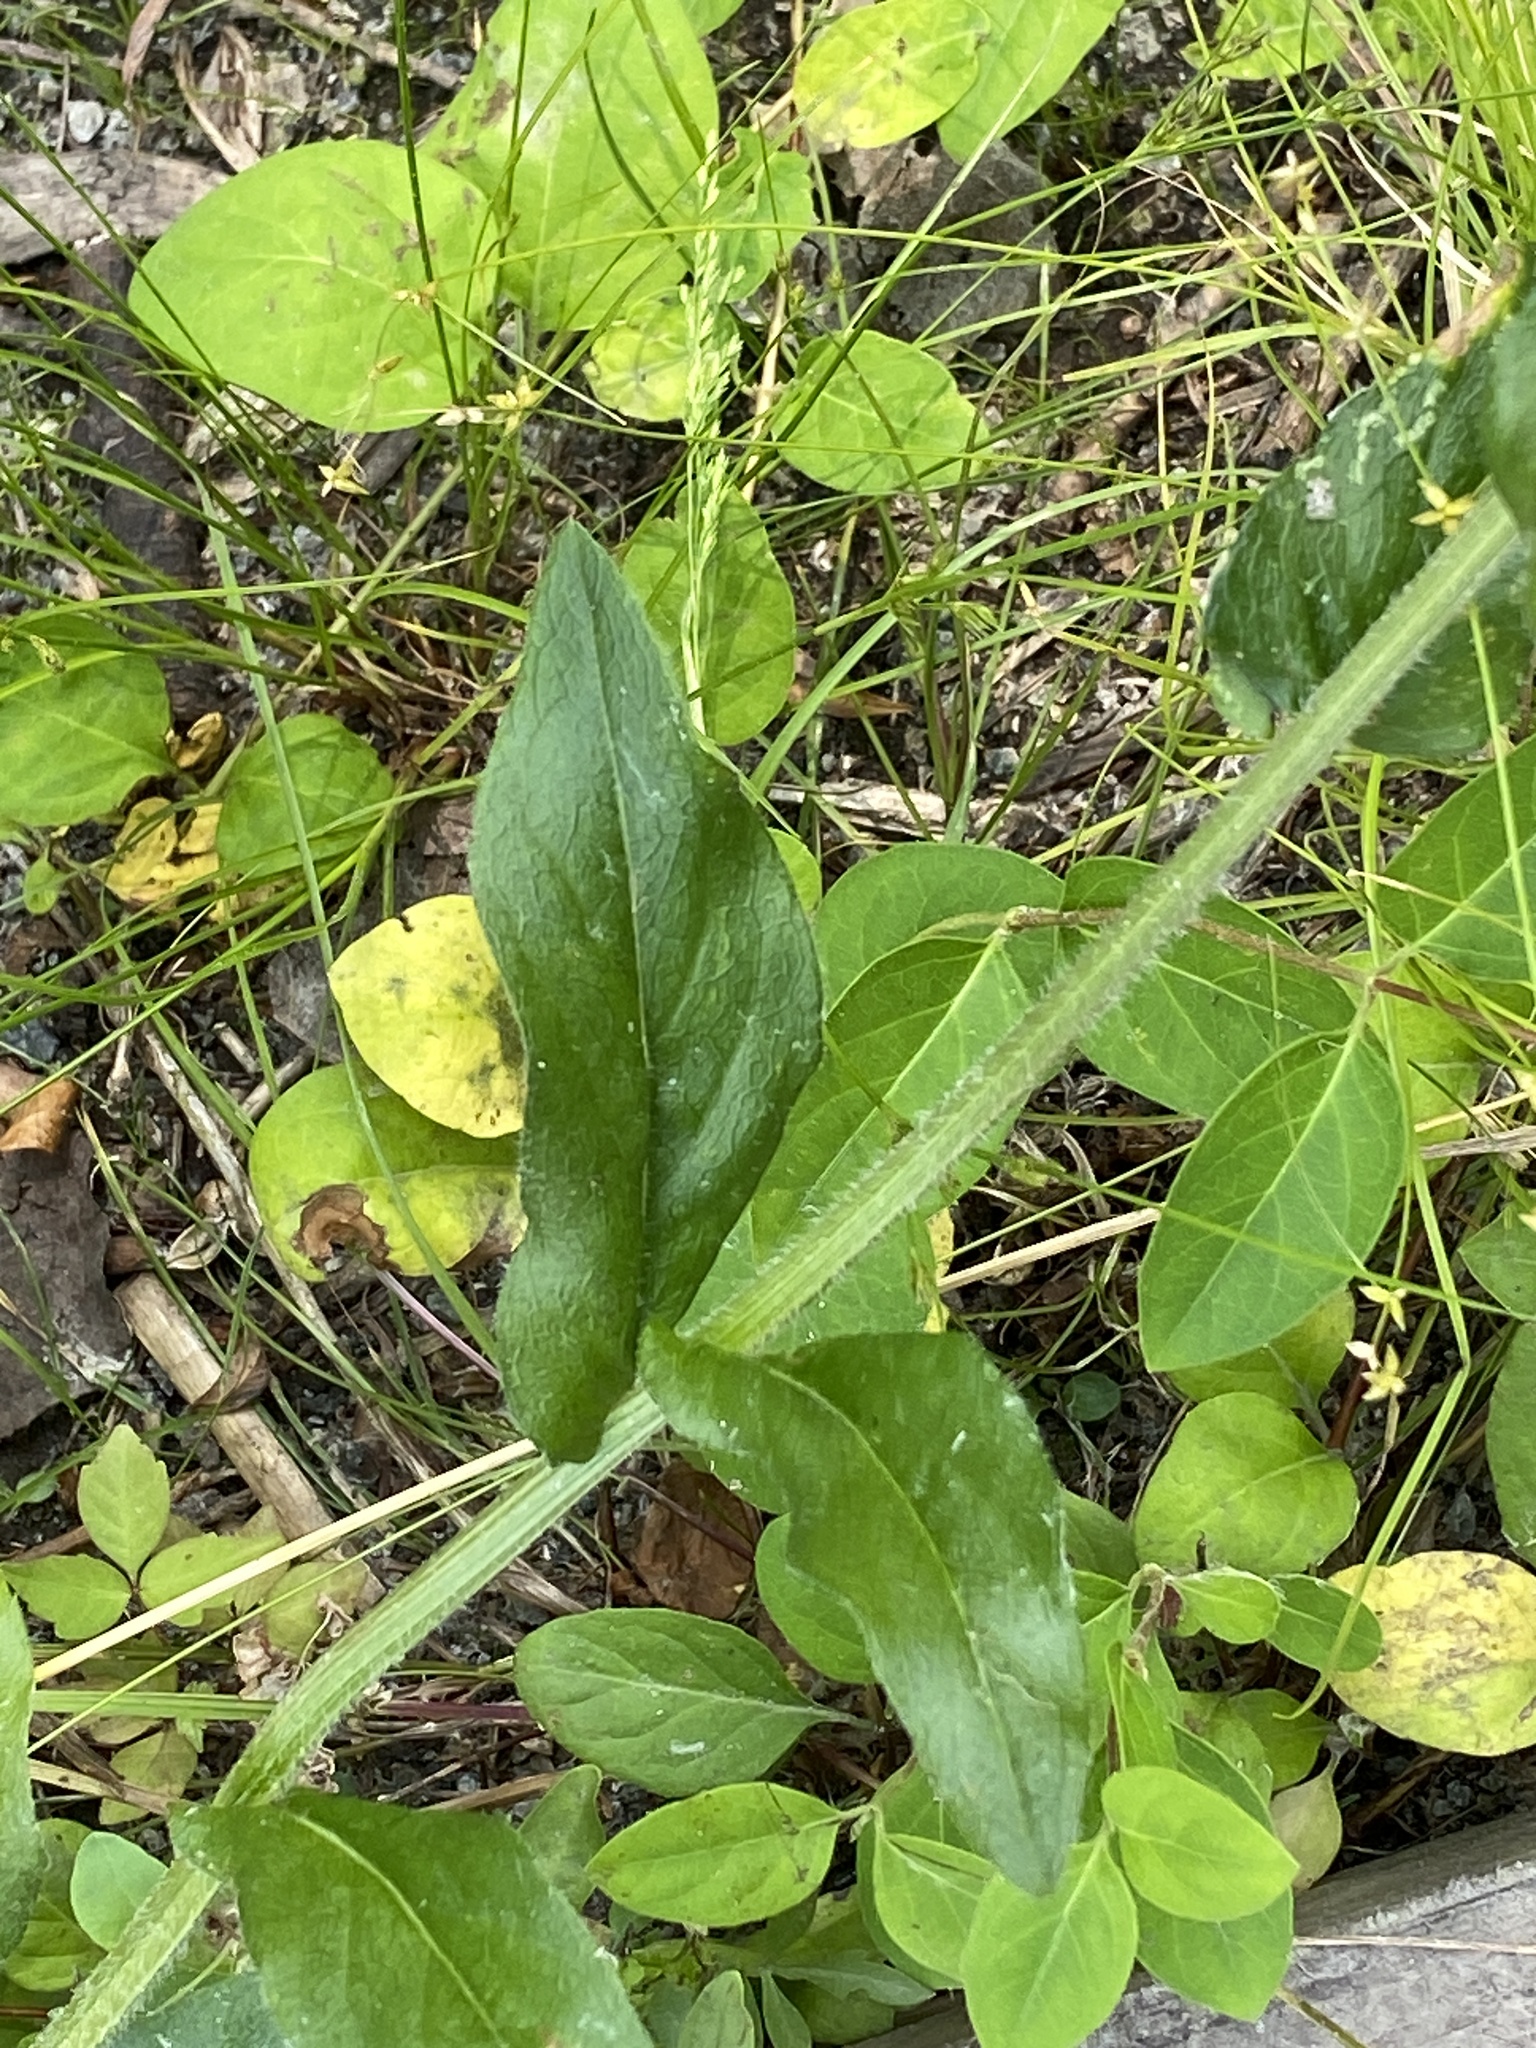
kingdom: Plantae
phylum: Tracheophyta
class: Magnoliopsida
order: Asterales
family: Asteraceae
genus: Erigeron
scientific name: Erigeron philadelphicus
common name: Robin's-plantain
